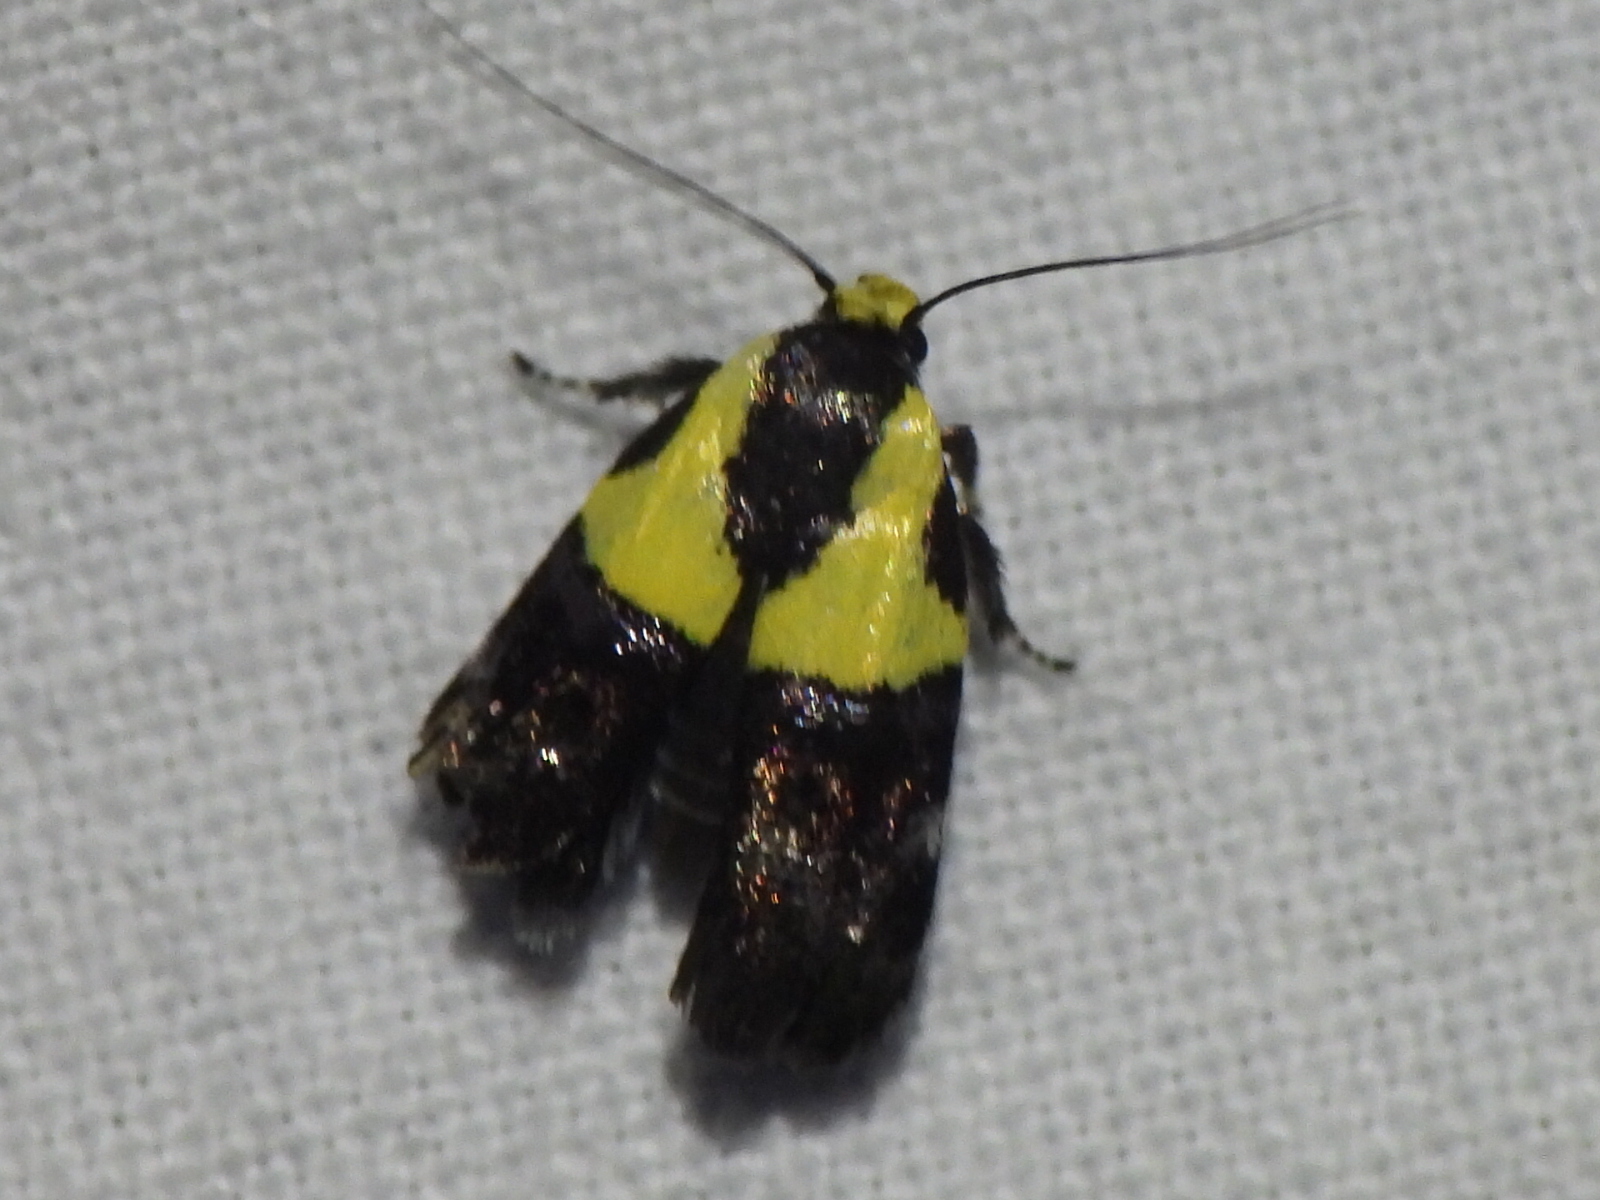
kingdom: Animalia
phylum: Arthropoda
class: Insecta
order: Lepidoptera
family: Depressariidae
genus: Rectiostoma
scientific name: Rectiostoma xanthobasis
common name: Yellow-vested moth
